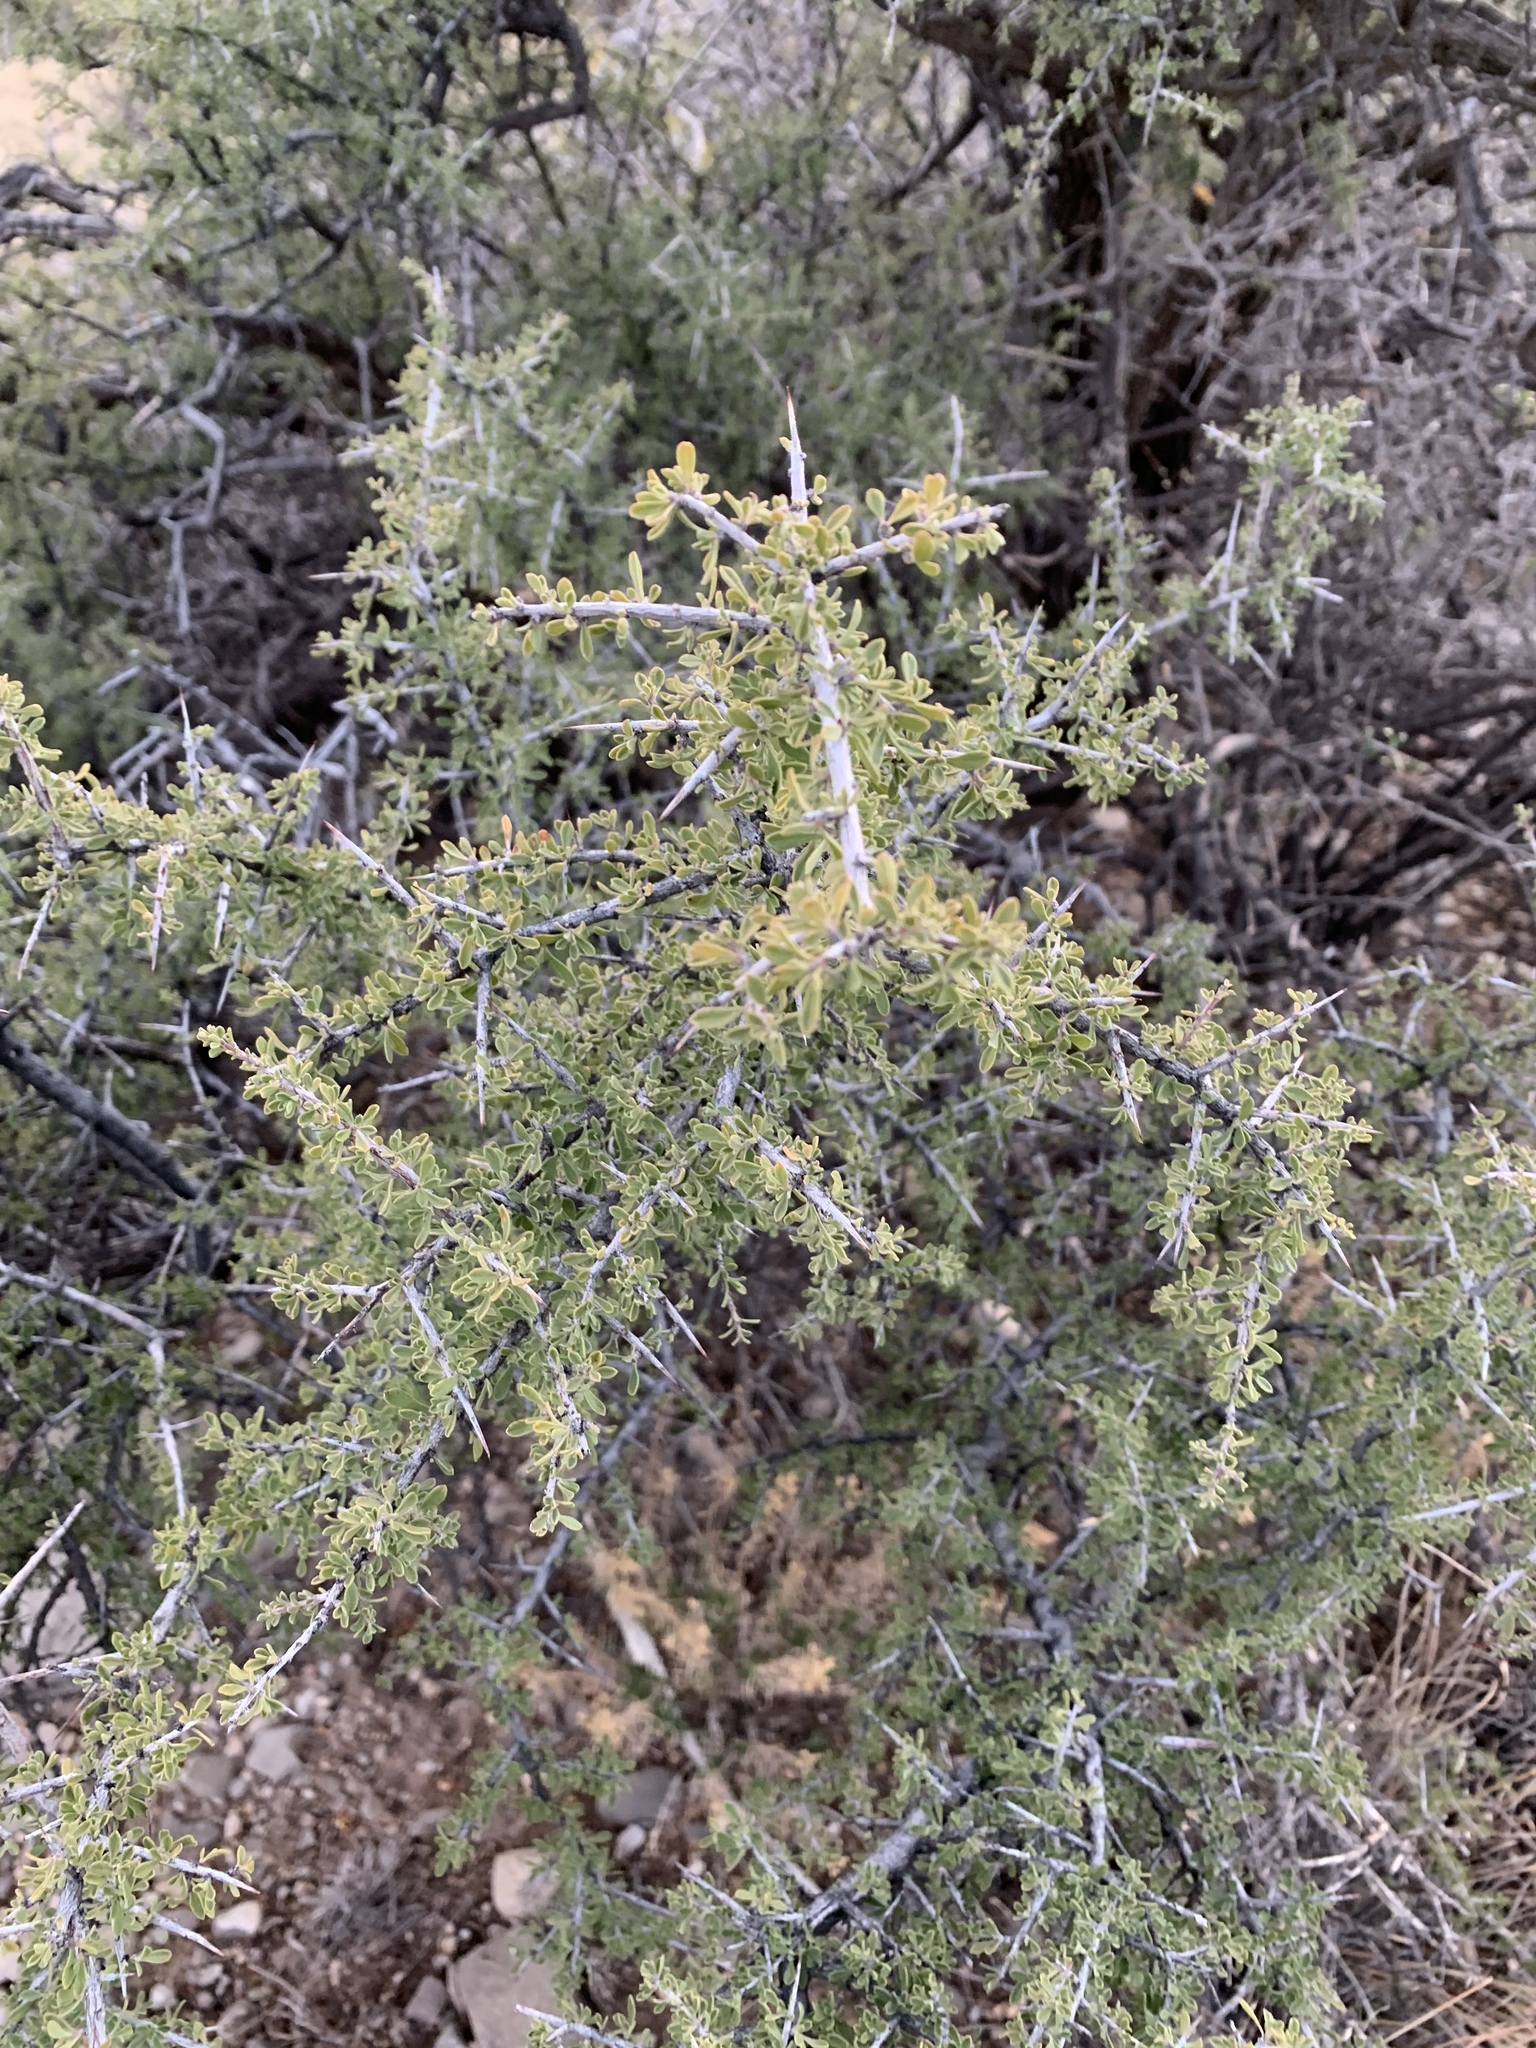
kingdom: Plantae
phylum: Tracheophyta
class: Magnoliopsida
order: Rosales
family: Rhamnaceae
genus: Condalia
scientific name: Condalia warnockii
